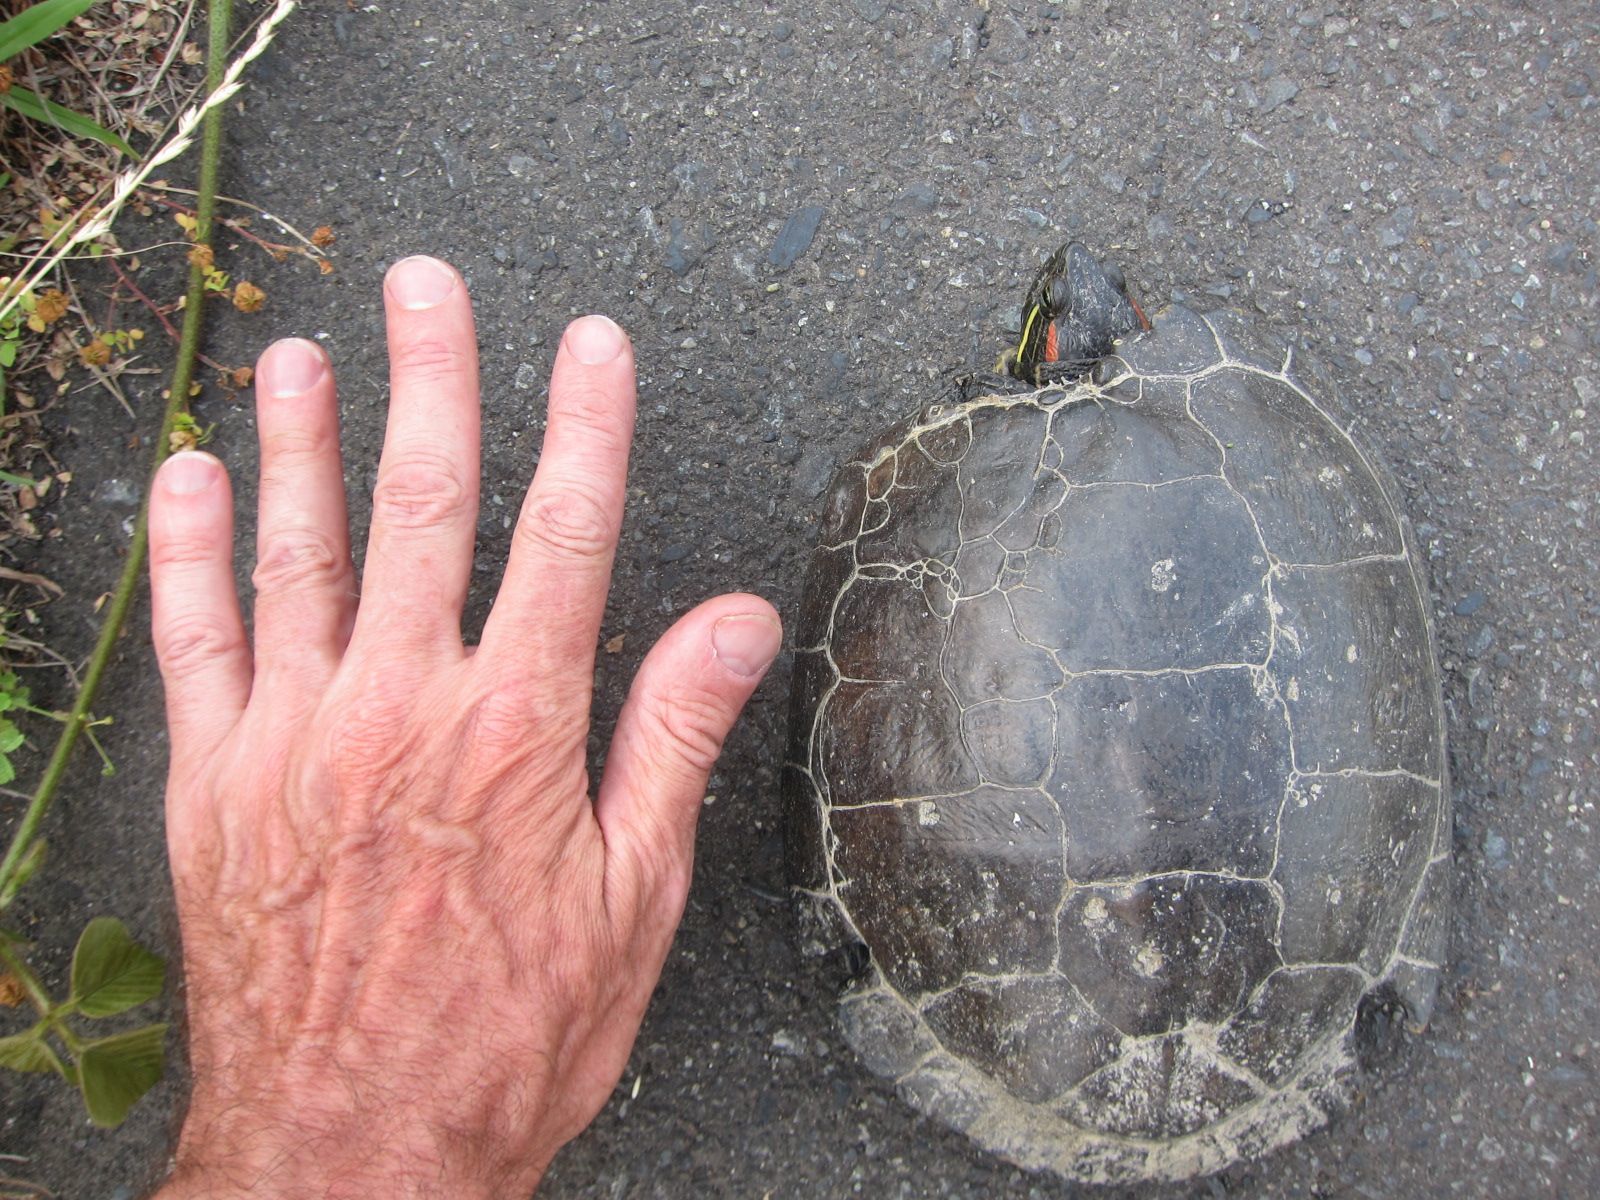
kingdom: Animalia
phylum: Chordata
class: Testudines
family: Emydidae
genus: Trachemys
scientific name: Trachemys scripta
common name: Slider
